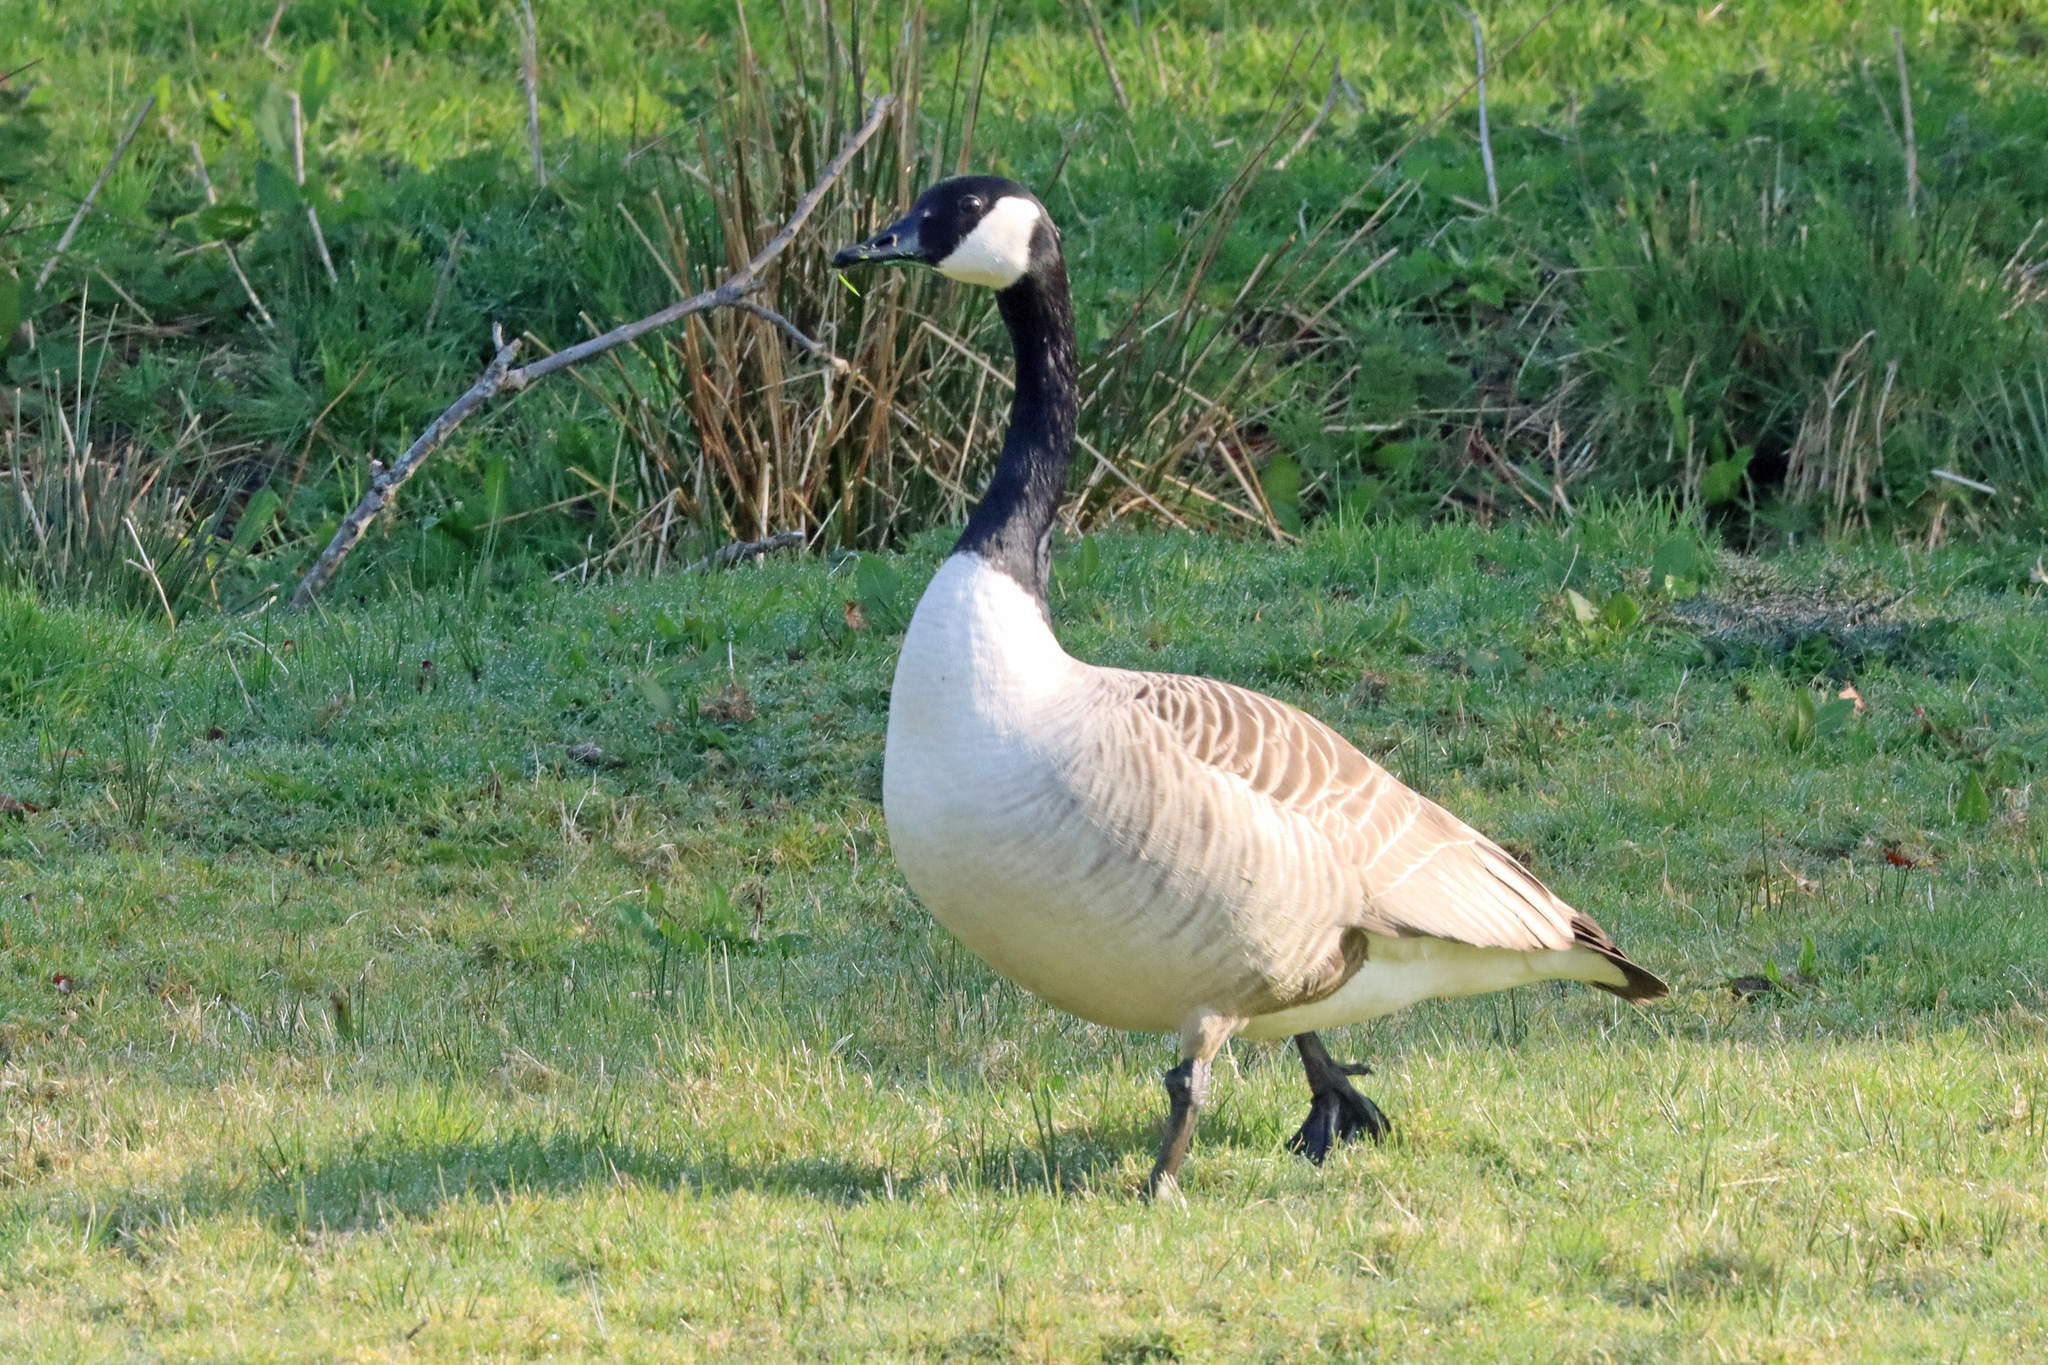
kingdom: Animalia
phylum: Chordata
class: Aves
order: Anseriformes
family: Anatidae
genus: Branta
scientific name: Branta canadensis
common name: Canada goose
